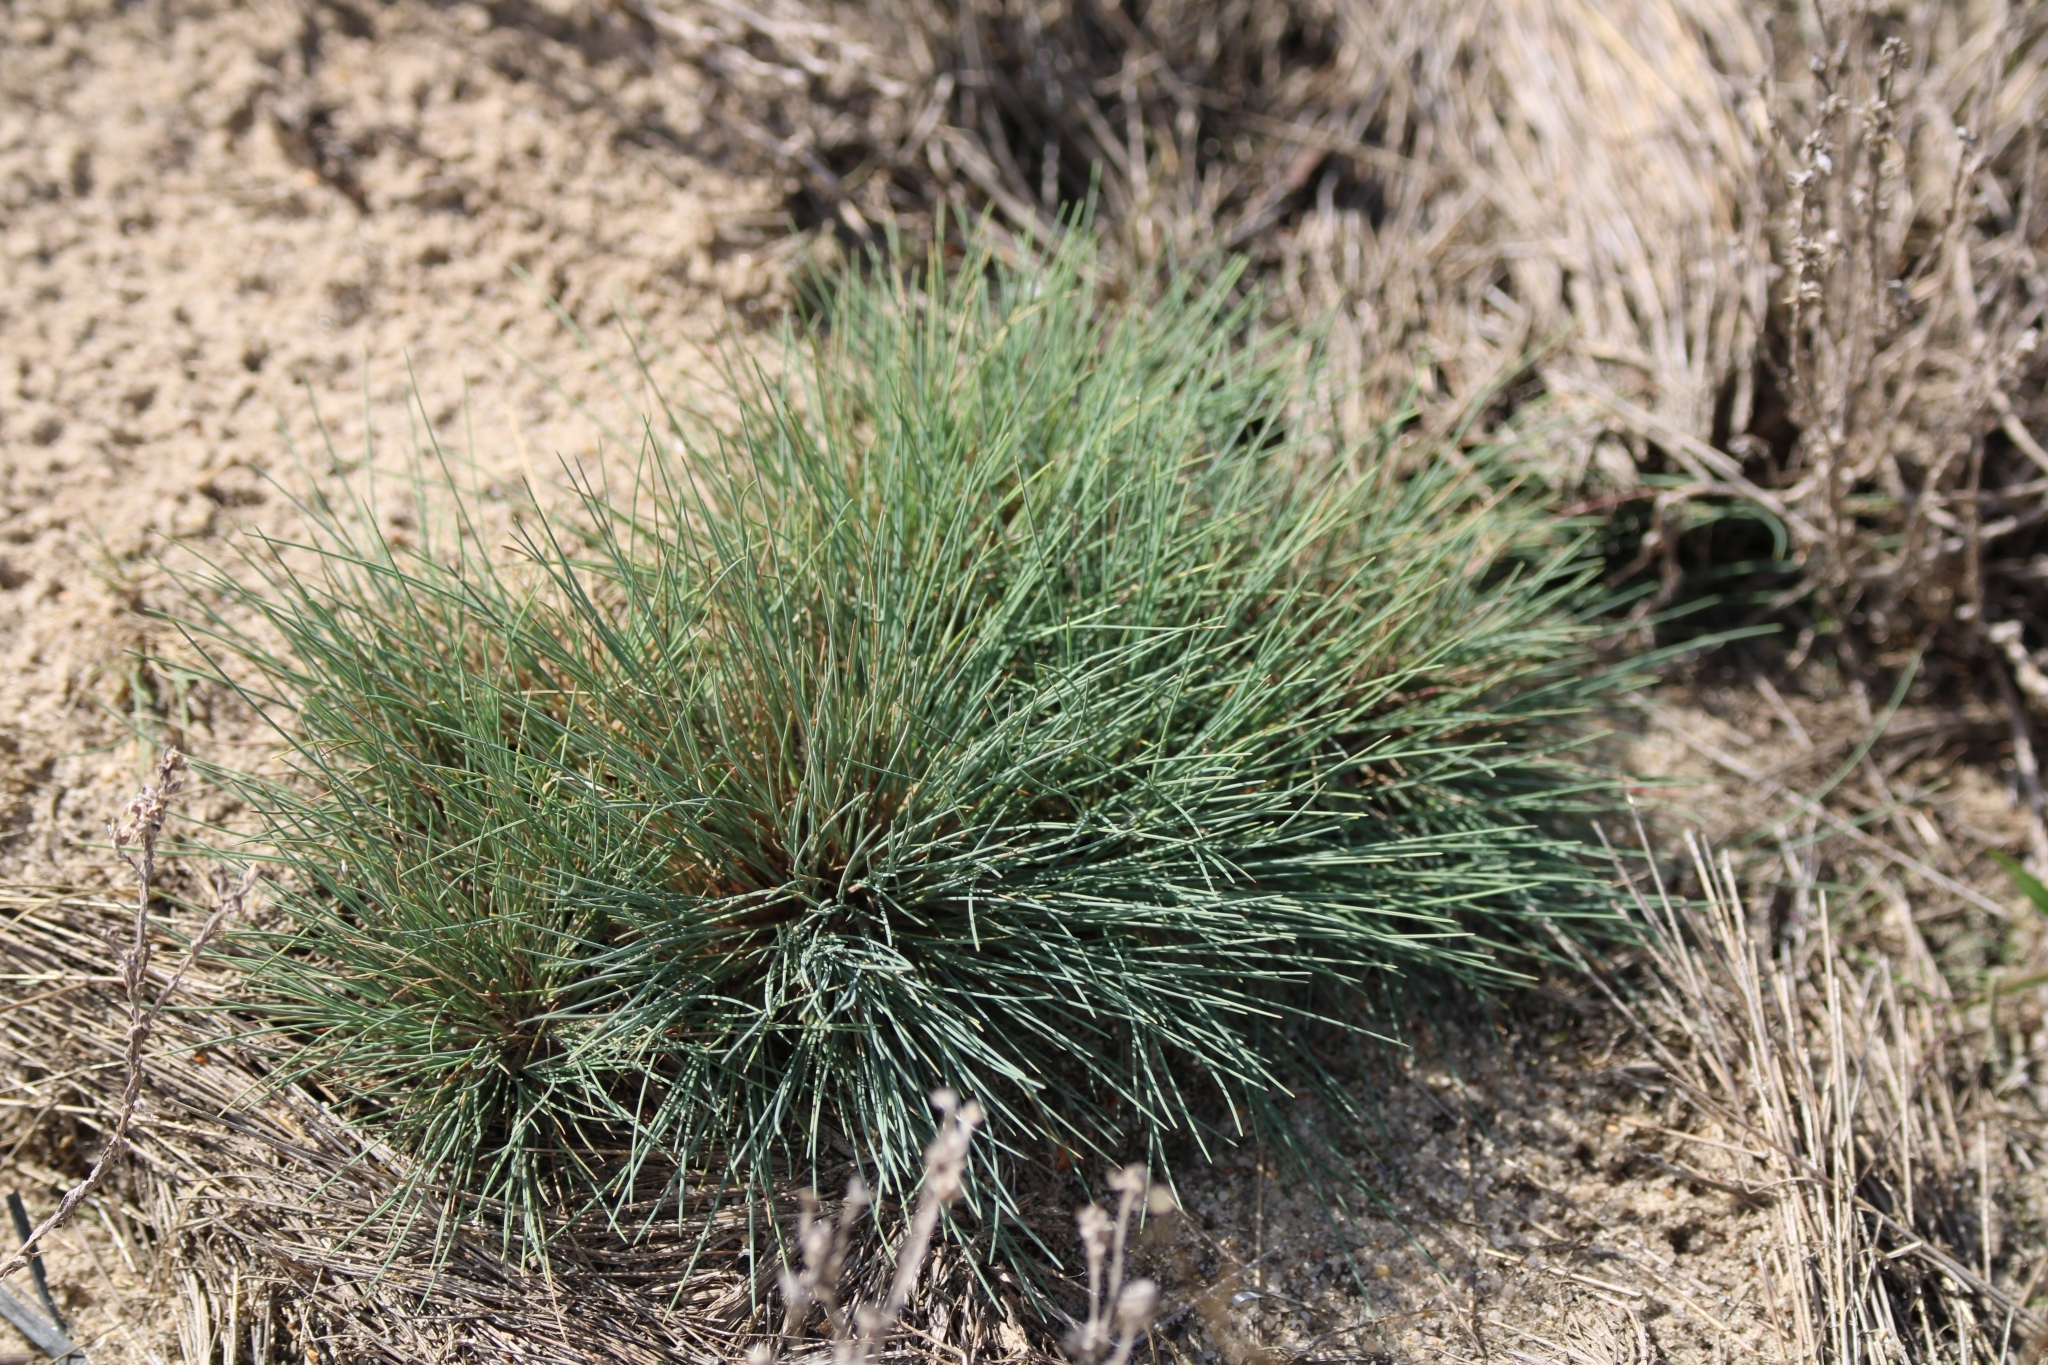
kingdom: Plantae
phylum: Tracheophyta
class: Liliopsida
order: Poales
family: Poaceae
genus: Corynephorus
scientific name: Corynephorus canescens
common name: Grey hair-grass
